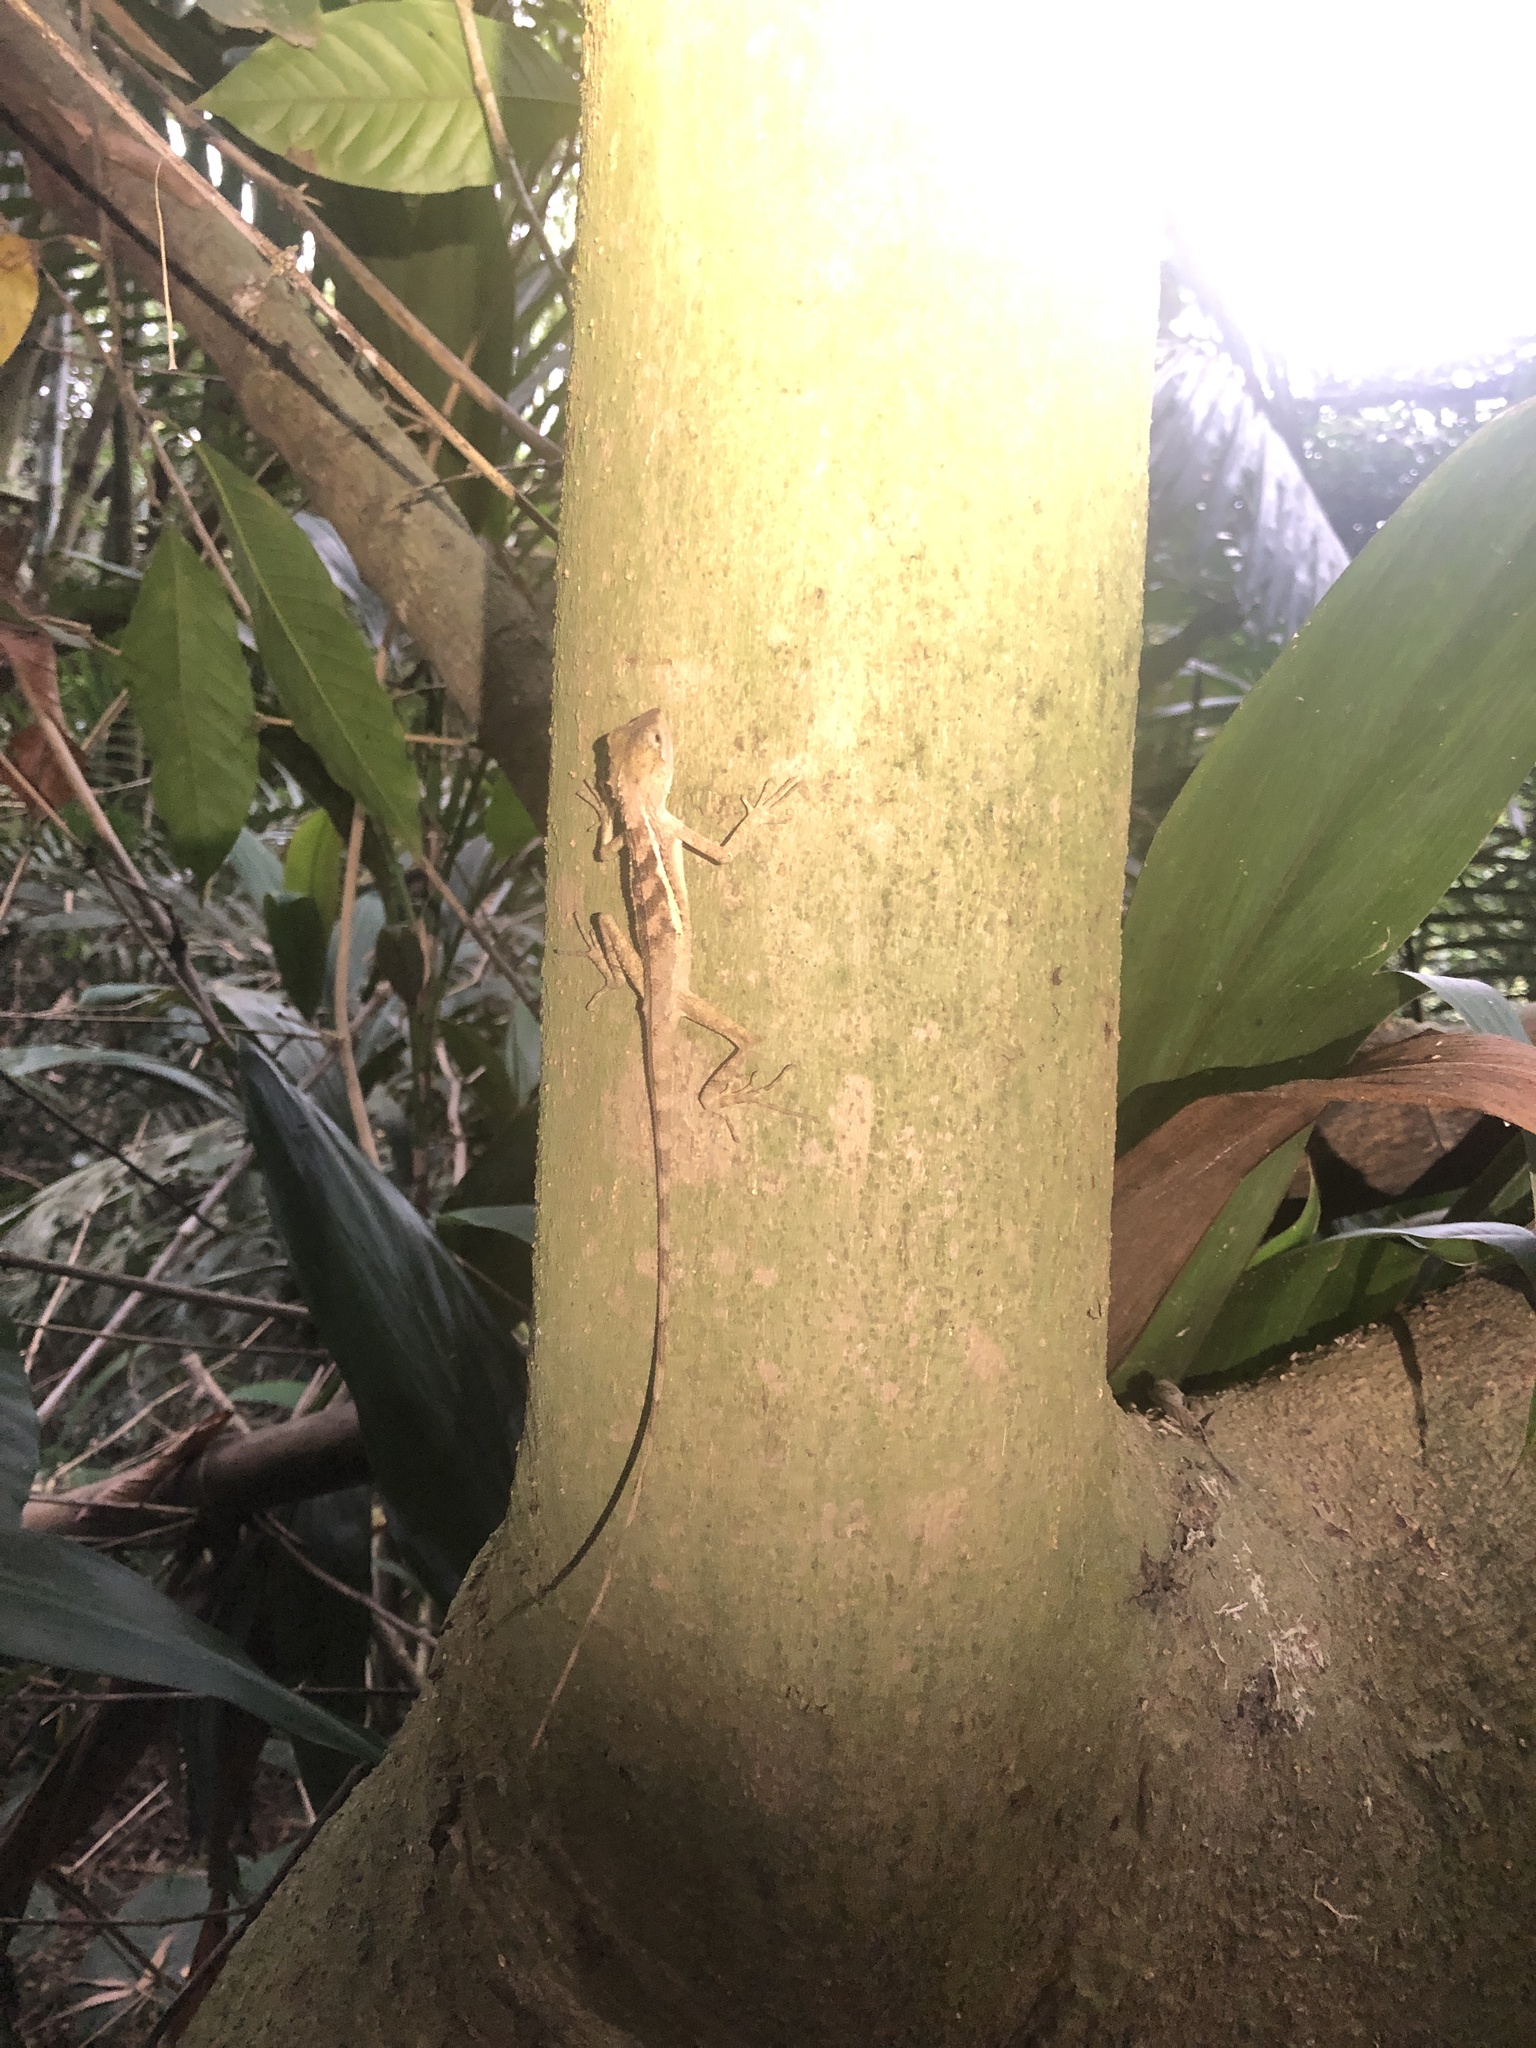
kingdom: Animalia
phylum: Chordata
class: Squamata
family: Agamidae
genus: Diploderma
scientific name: Diploderma swinhonis
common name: Taiwan japalure
